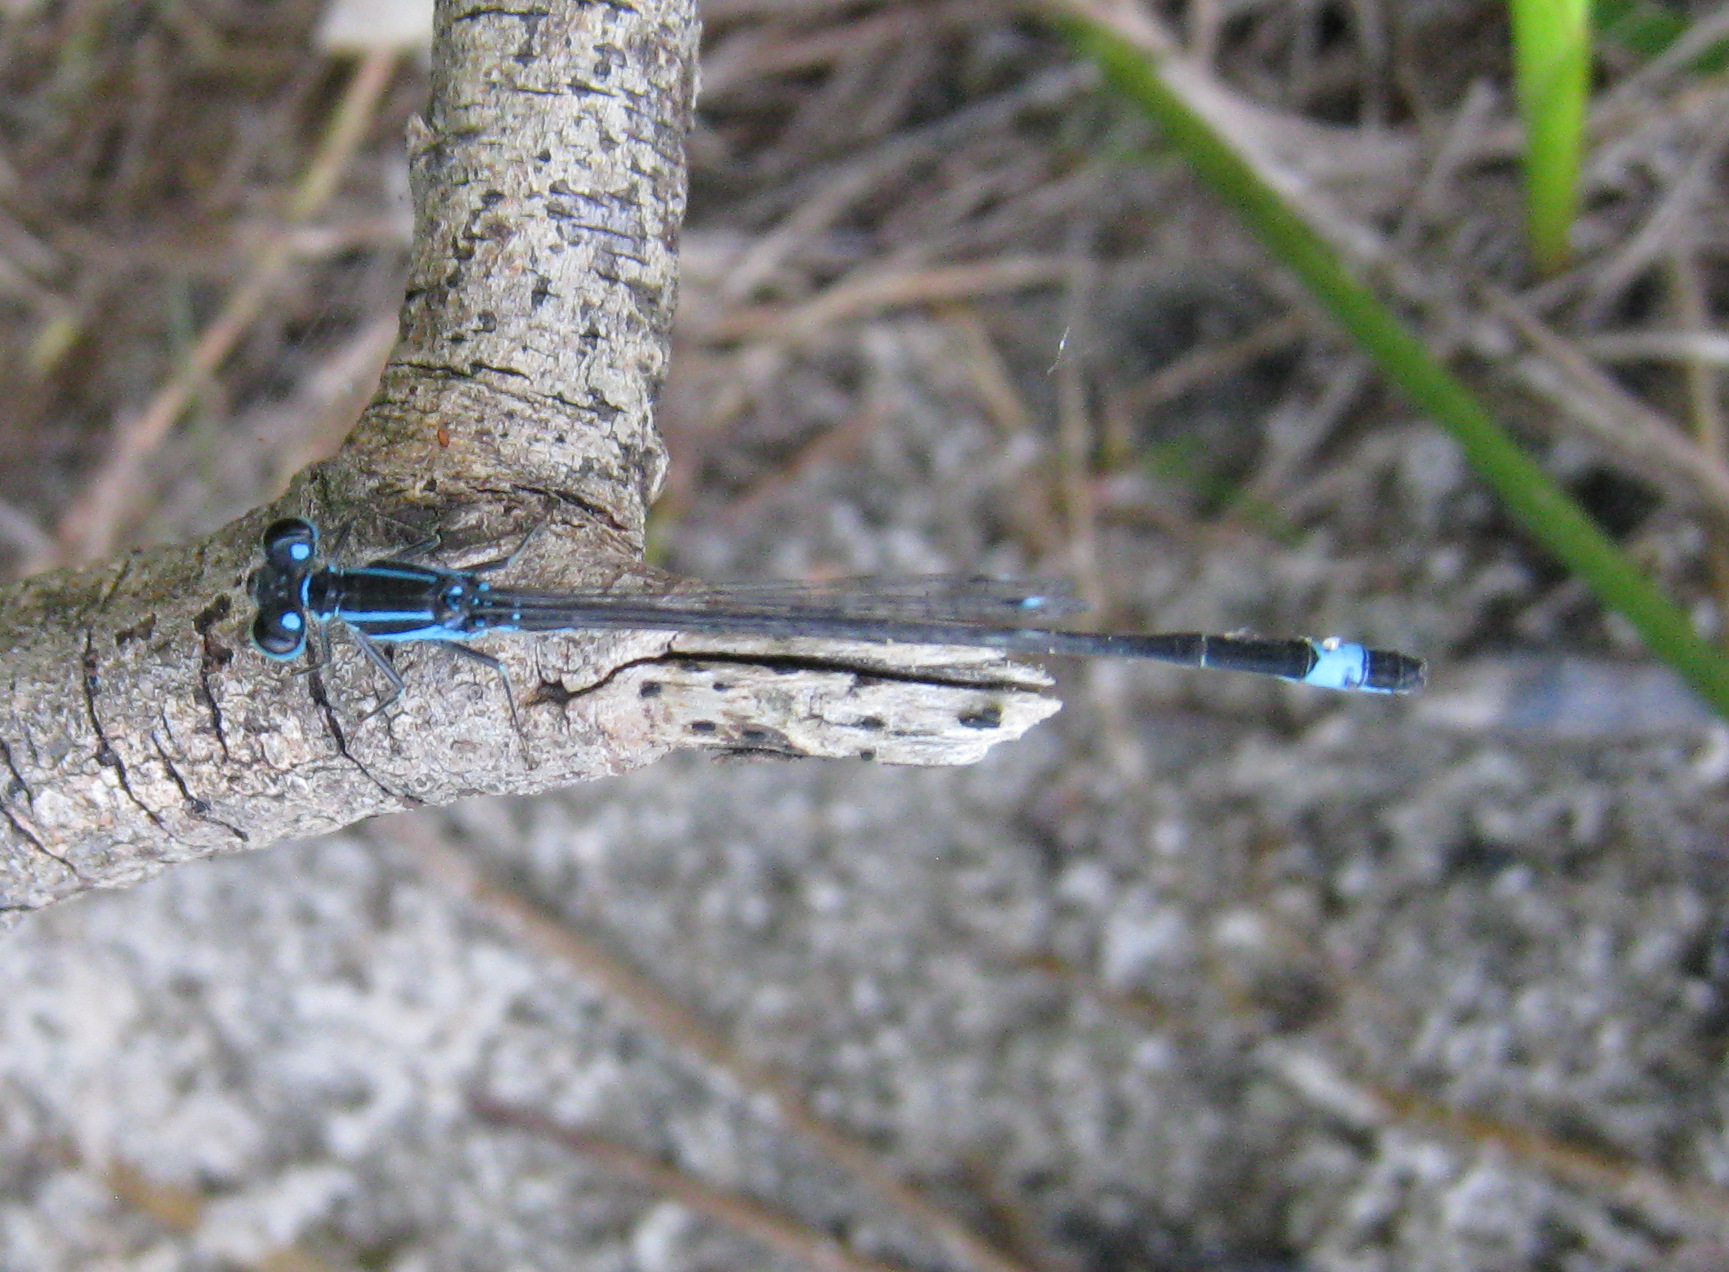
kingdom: Animalia
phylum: Arthropoda
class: Insecta
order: Odonata
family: Coenagrionidae
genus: Ischnura
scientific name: Ischnura elegans
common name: Blue-tailed damselfly
